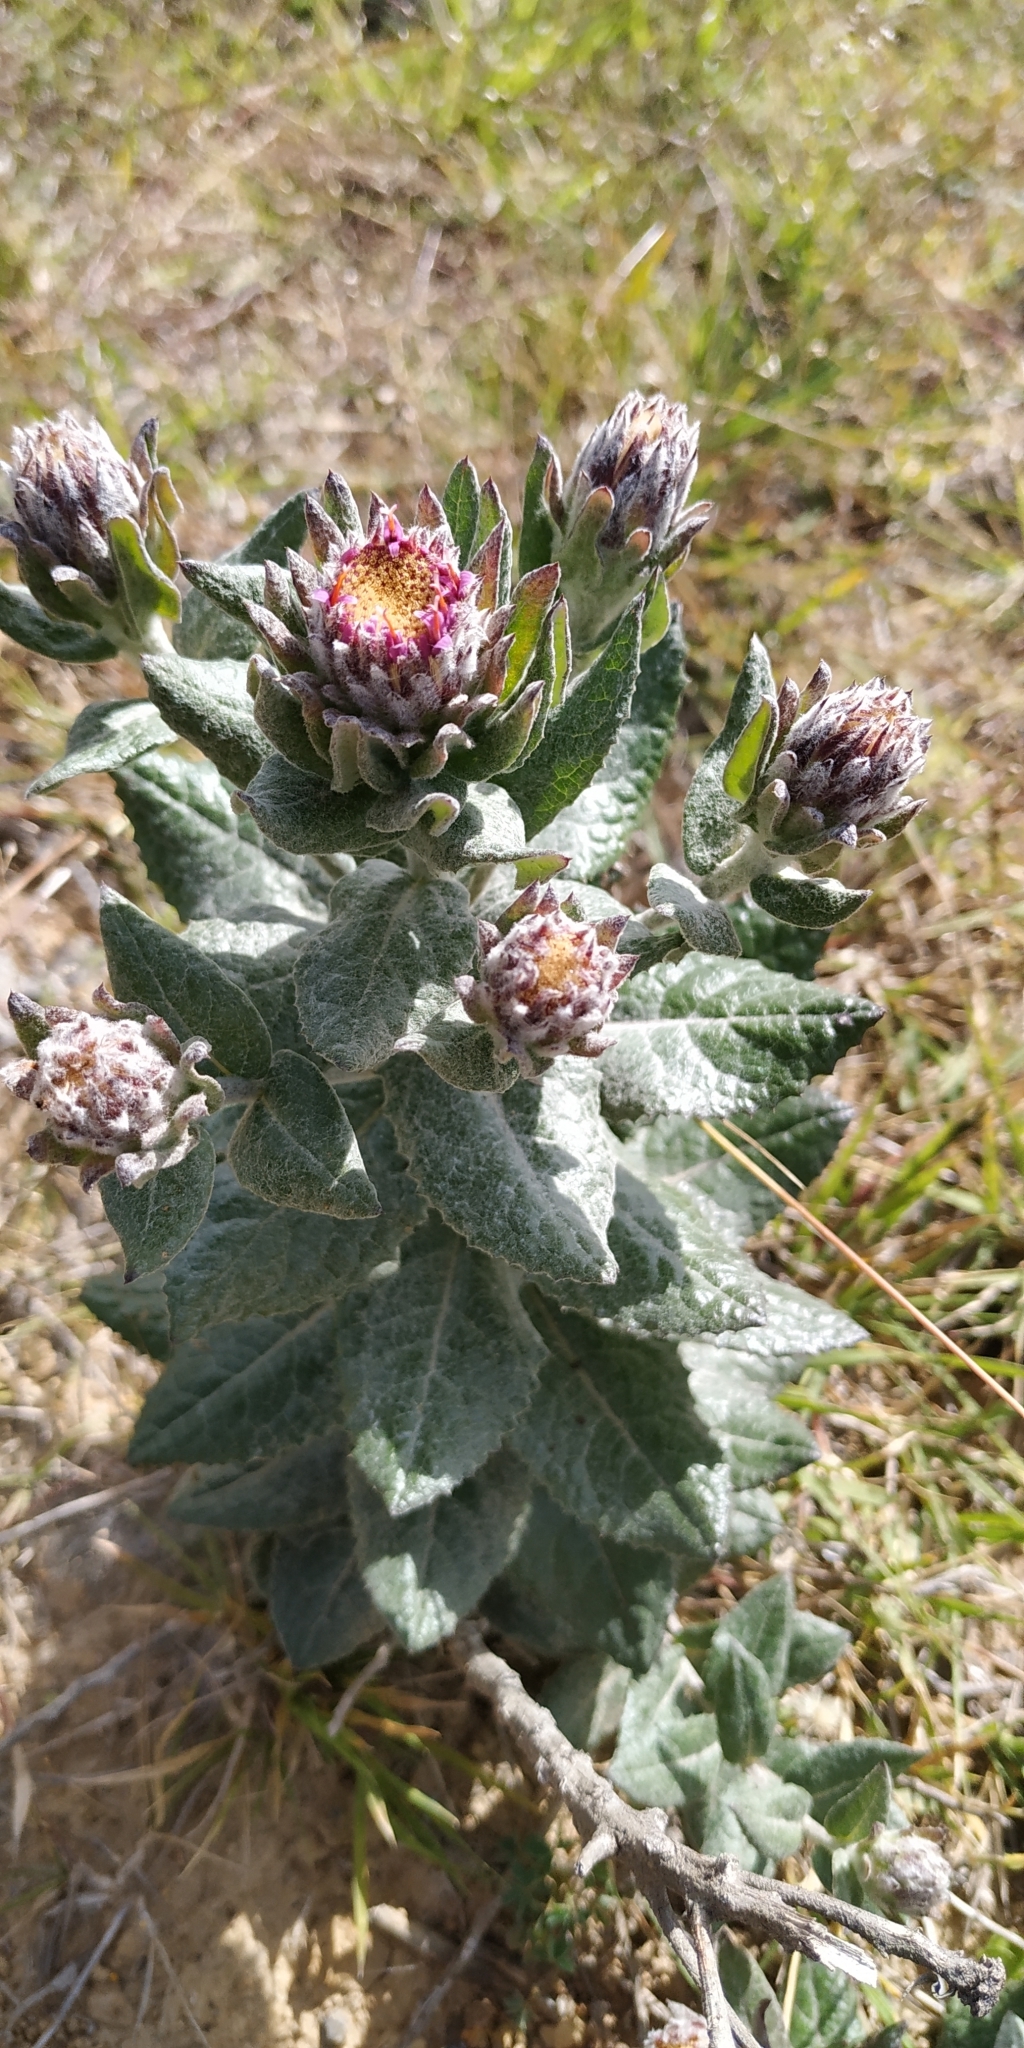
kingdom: Plantae
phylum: Tracheophyta
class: Magnoliopsida
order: Asterales
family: Asteraceae
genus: Acourtia
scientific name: Acourtia tomentosa
